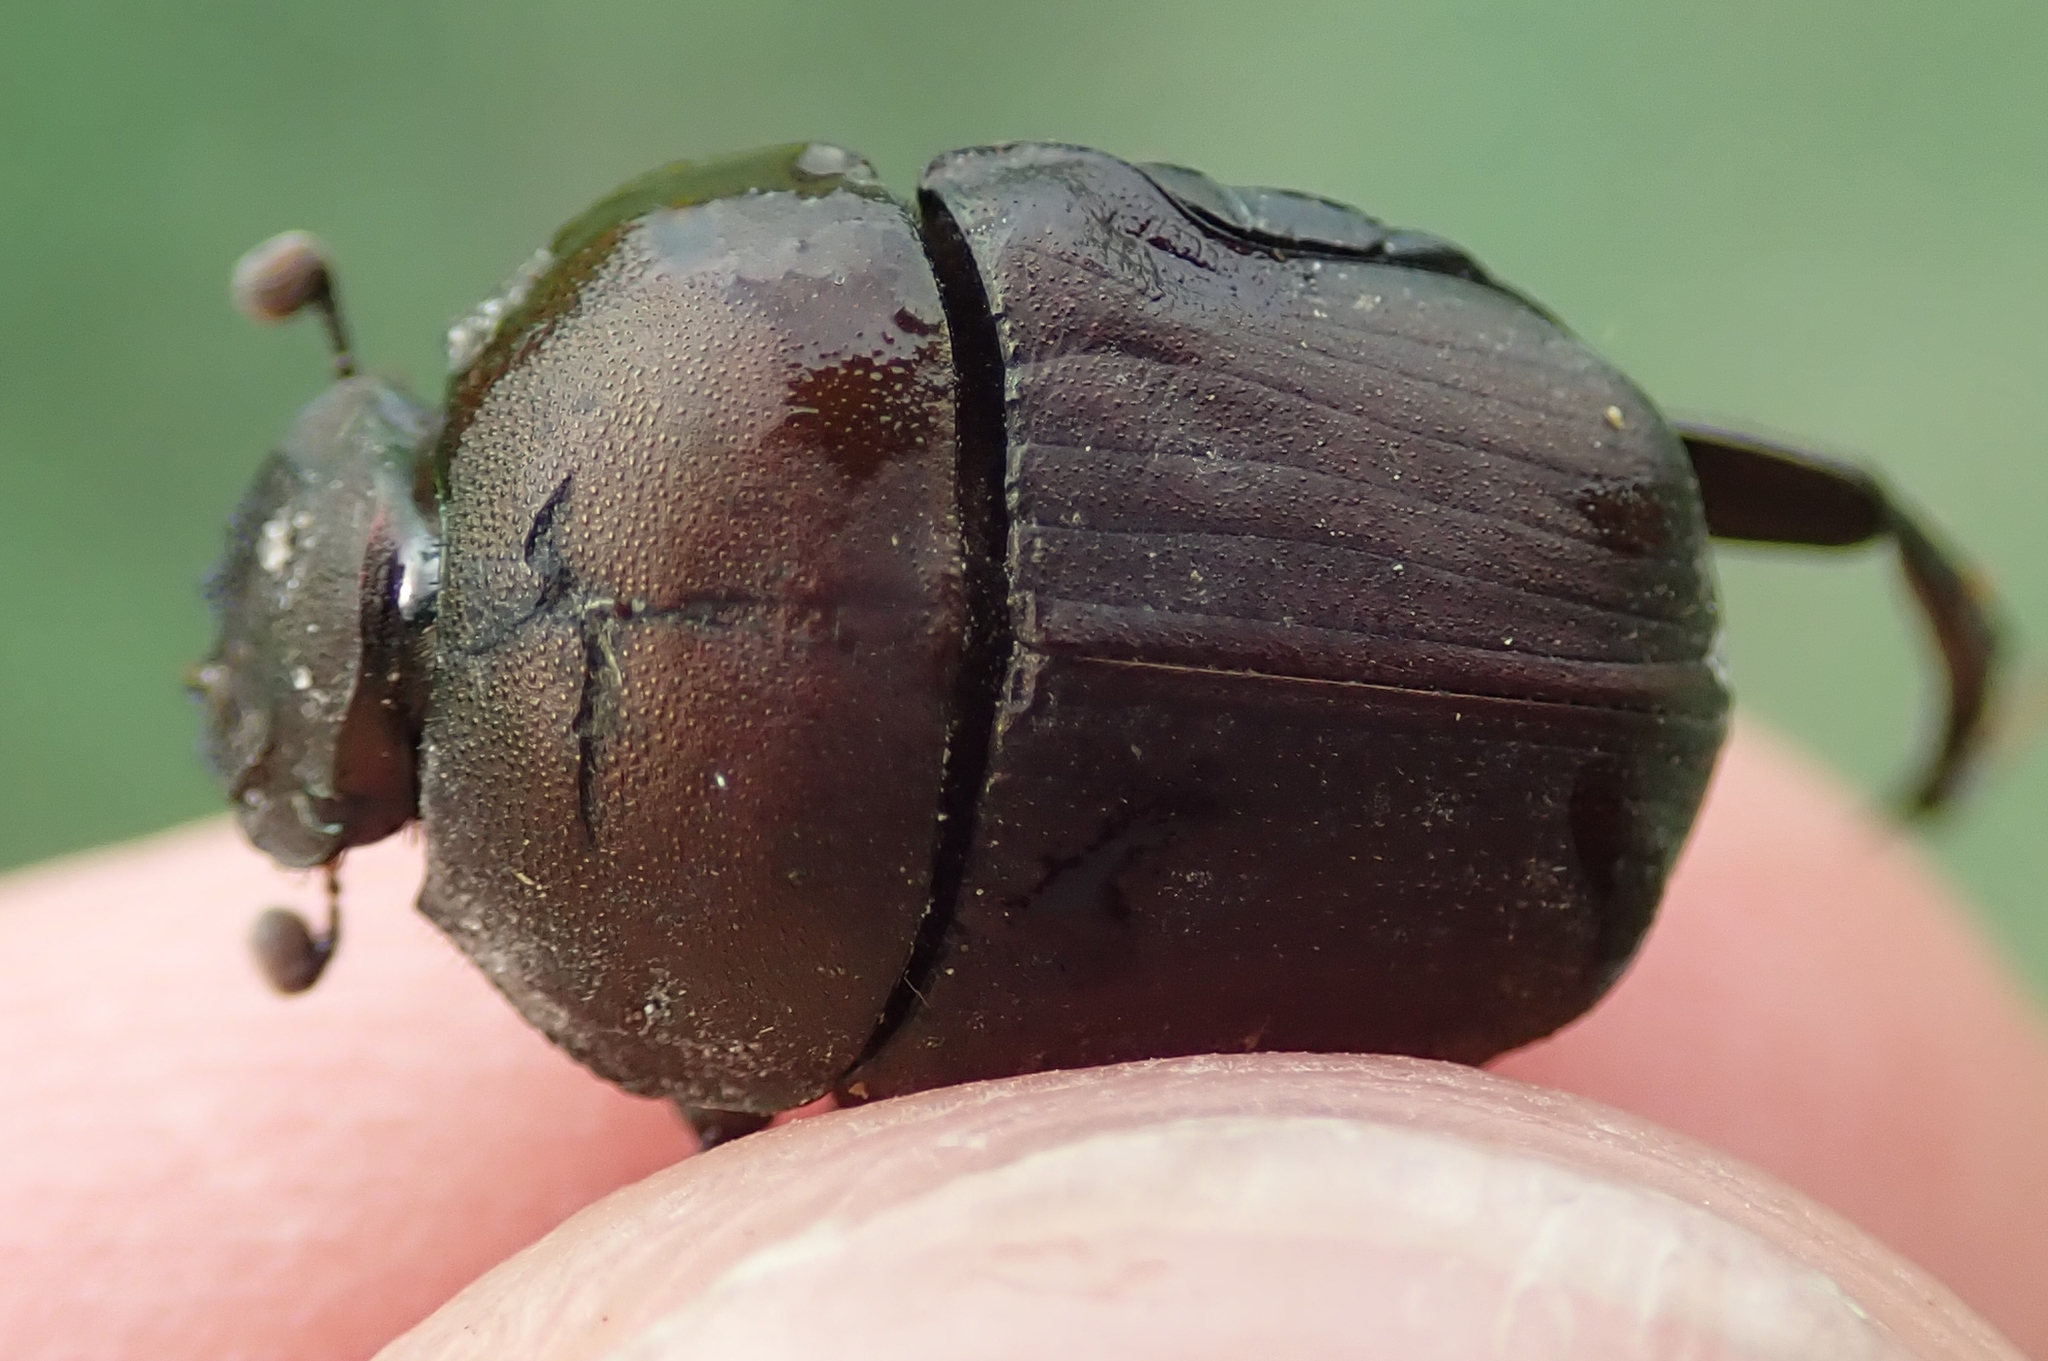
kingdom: Animalia
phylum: Arthropoda
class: Insecta
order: Coleoptera
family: Scarabaeidae
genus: Allogymnopleurus
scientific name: Allogymnopleurus splendidus
